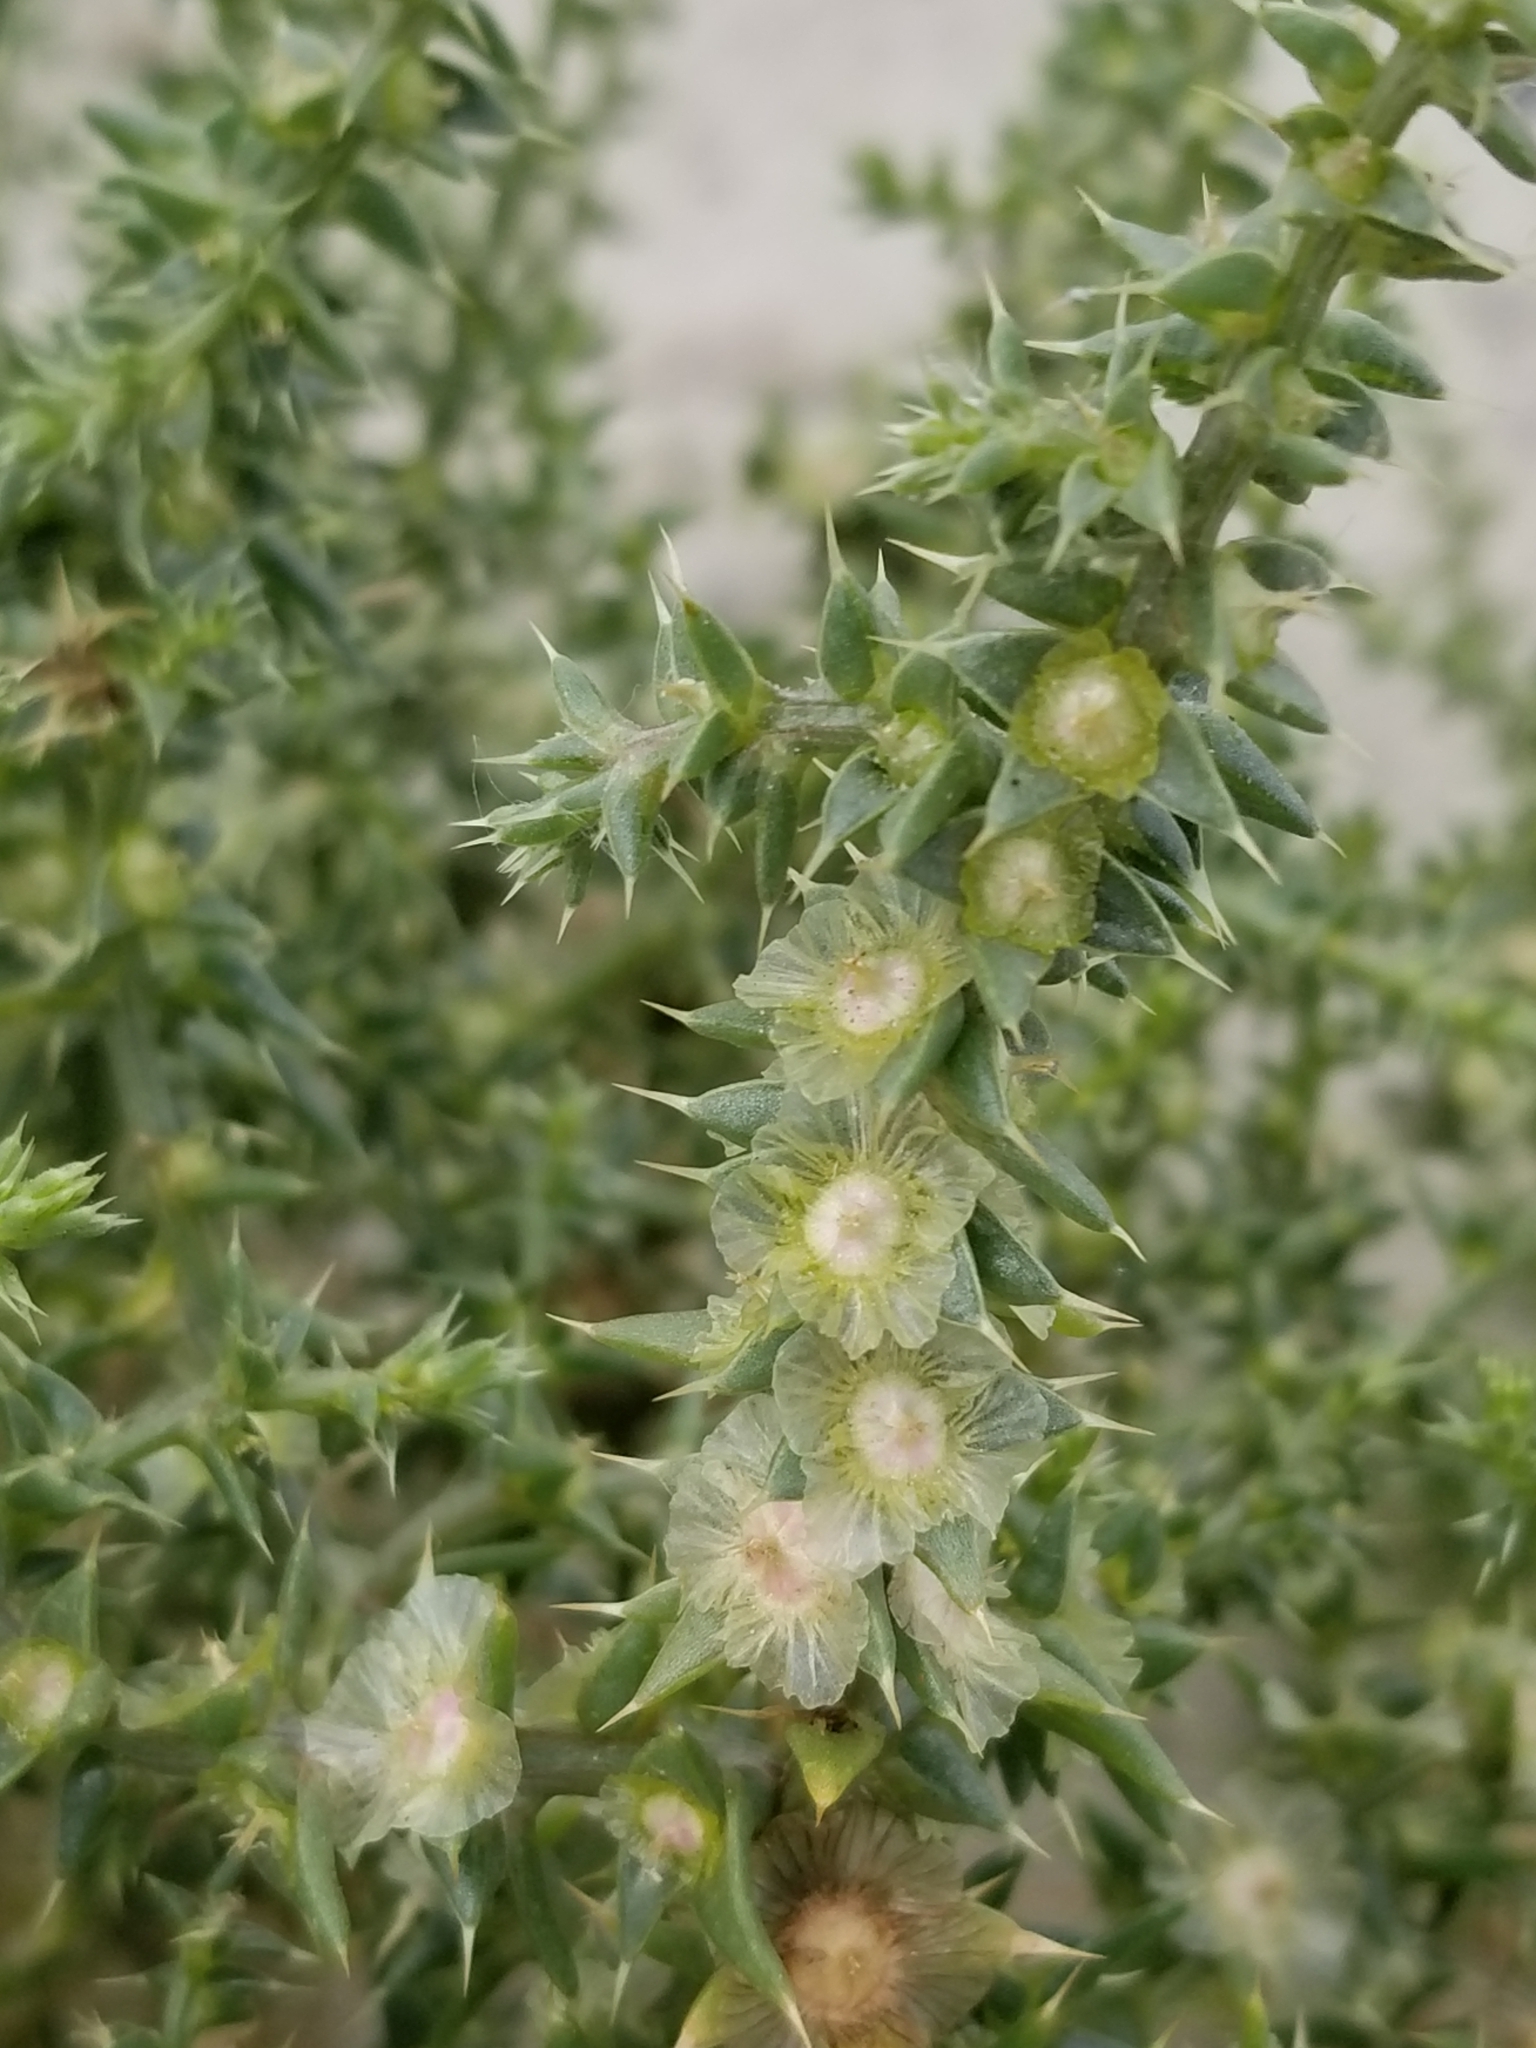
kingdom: Plantae
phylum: Tracheophyta
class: Magnoliopsida
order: Caryophyllales
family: Amaranthaceae
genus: Salsola
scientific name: Salsola tragus
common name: Prickly russian thistle
